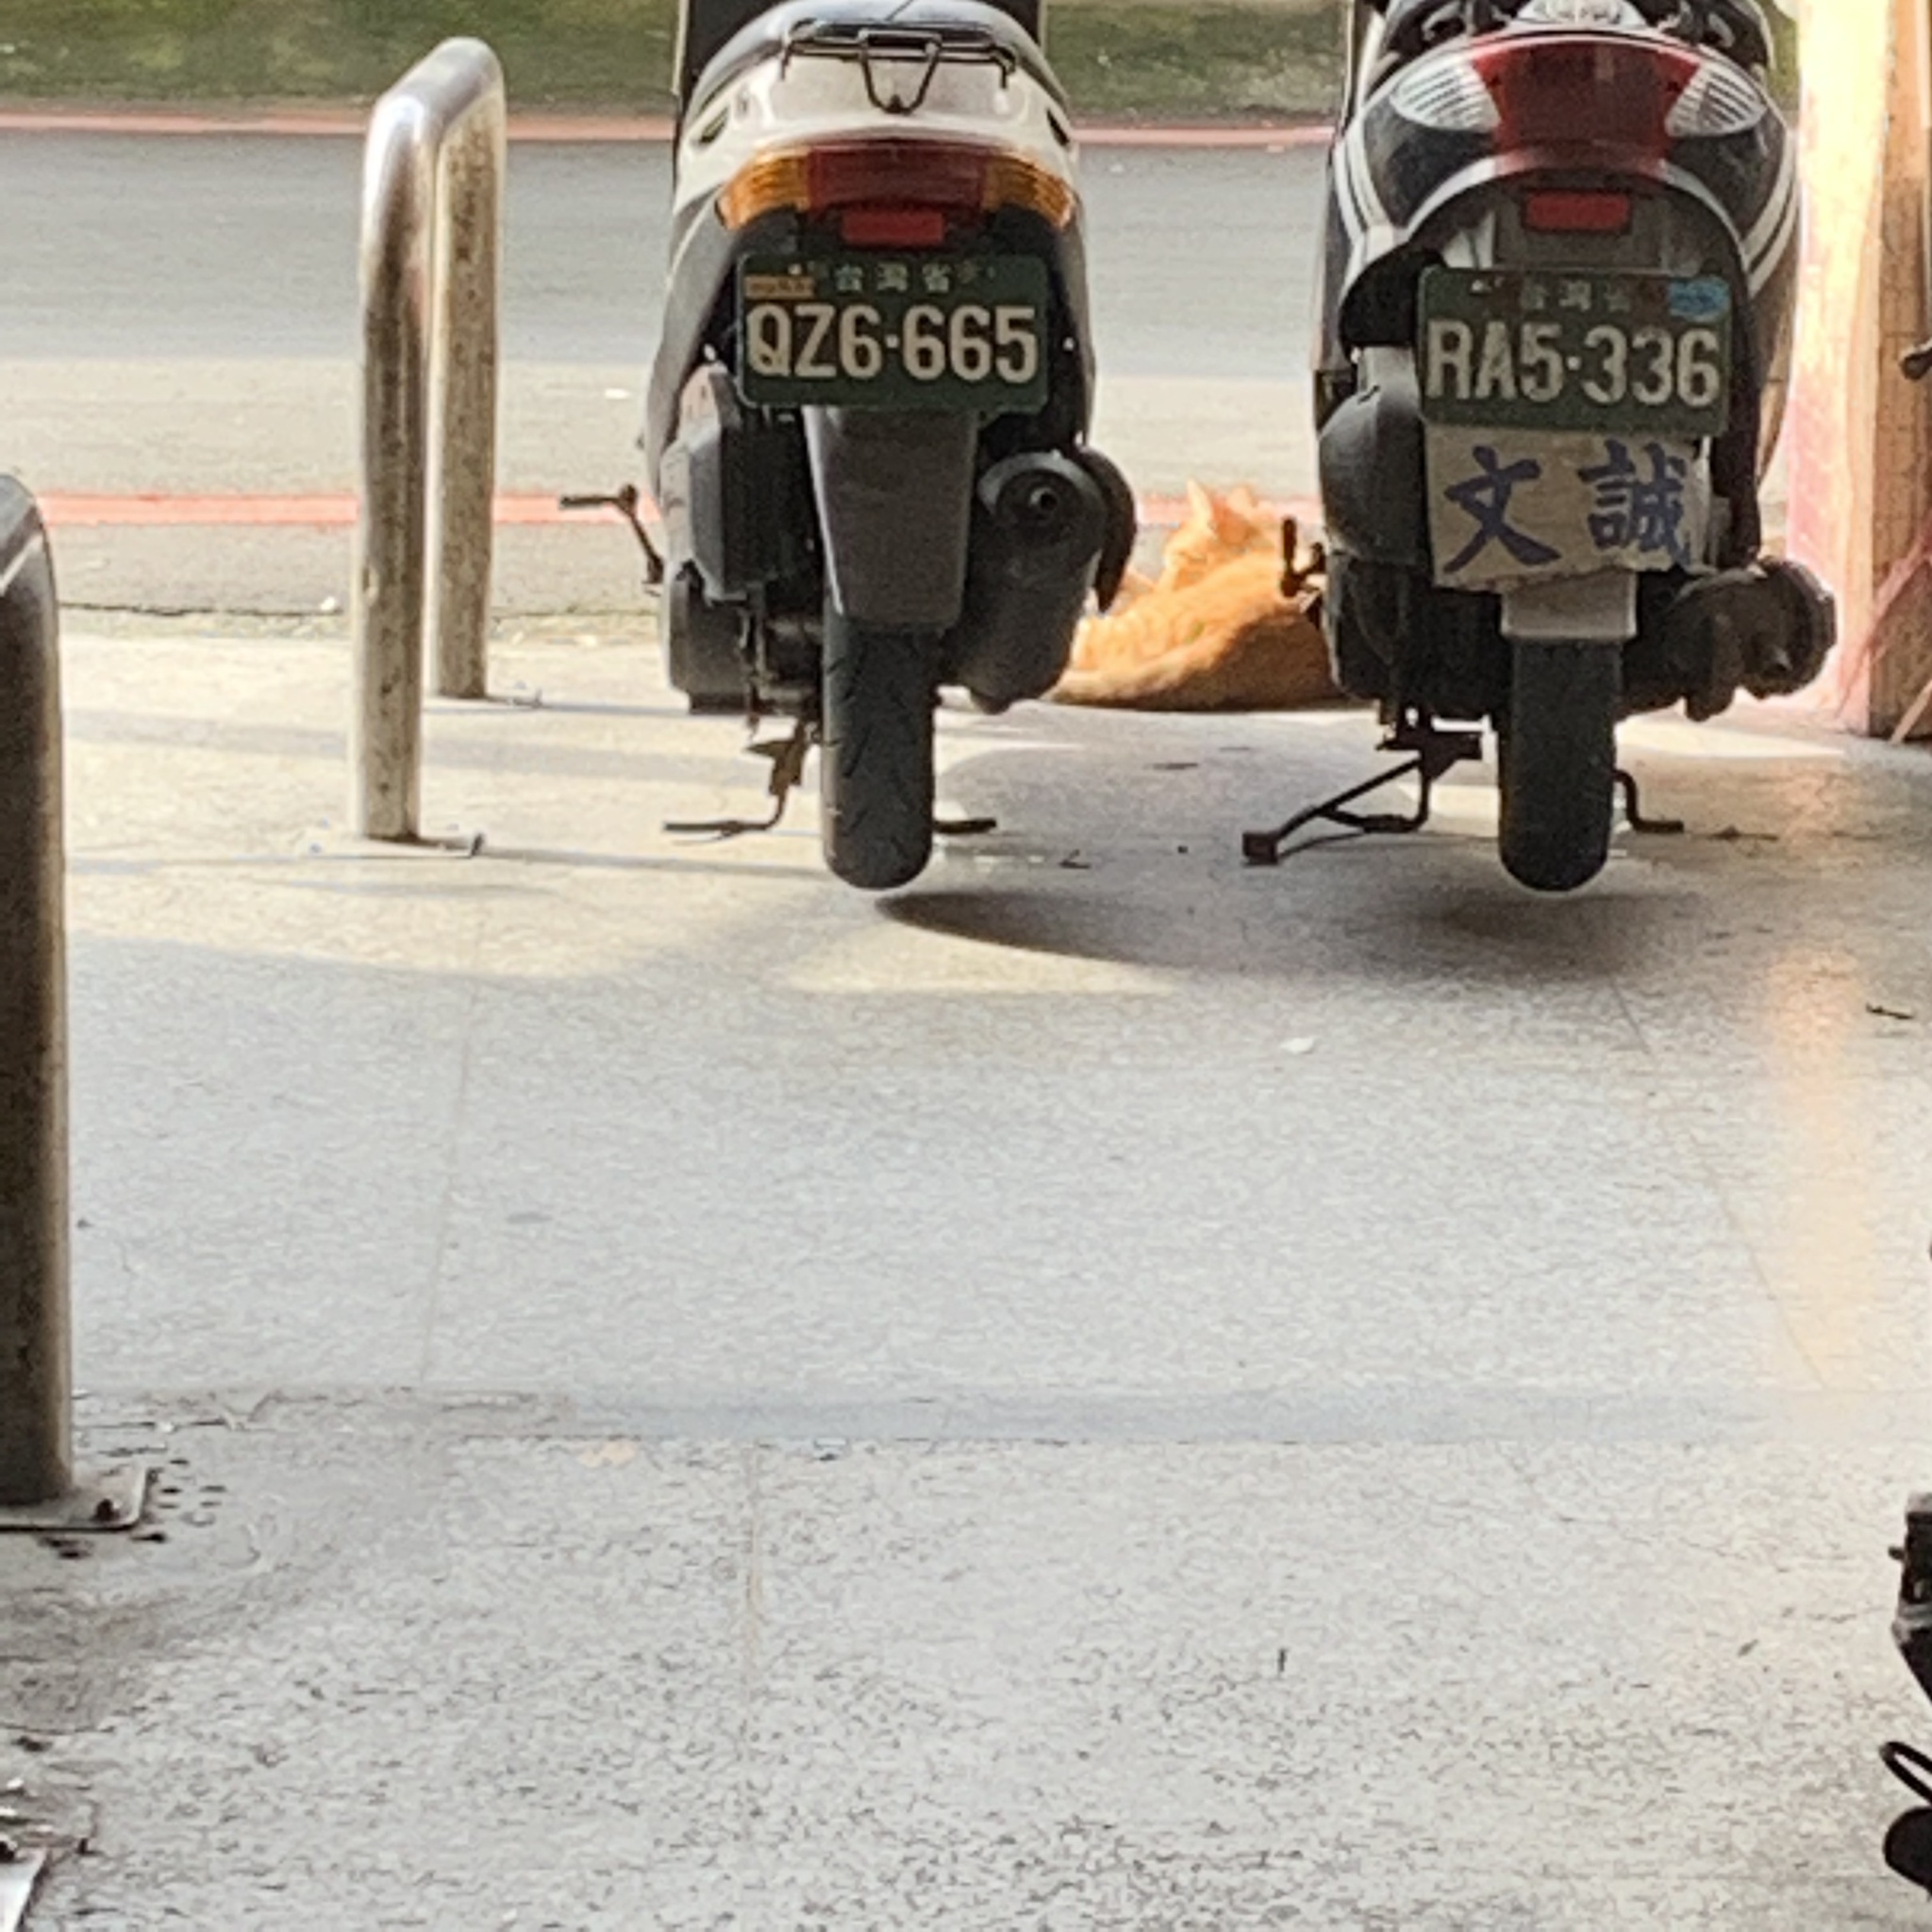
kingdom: Animalia
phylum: Chordata
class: Mammalia
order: Carnivora
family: Felidae
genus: Felis
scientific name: Felis catus
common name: Domestic cat
